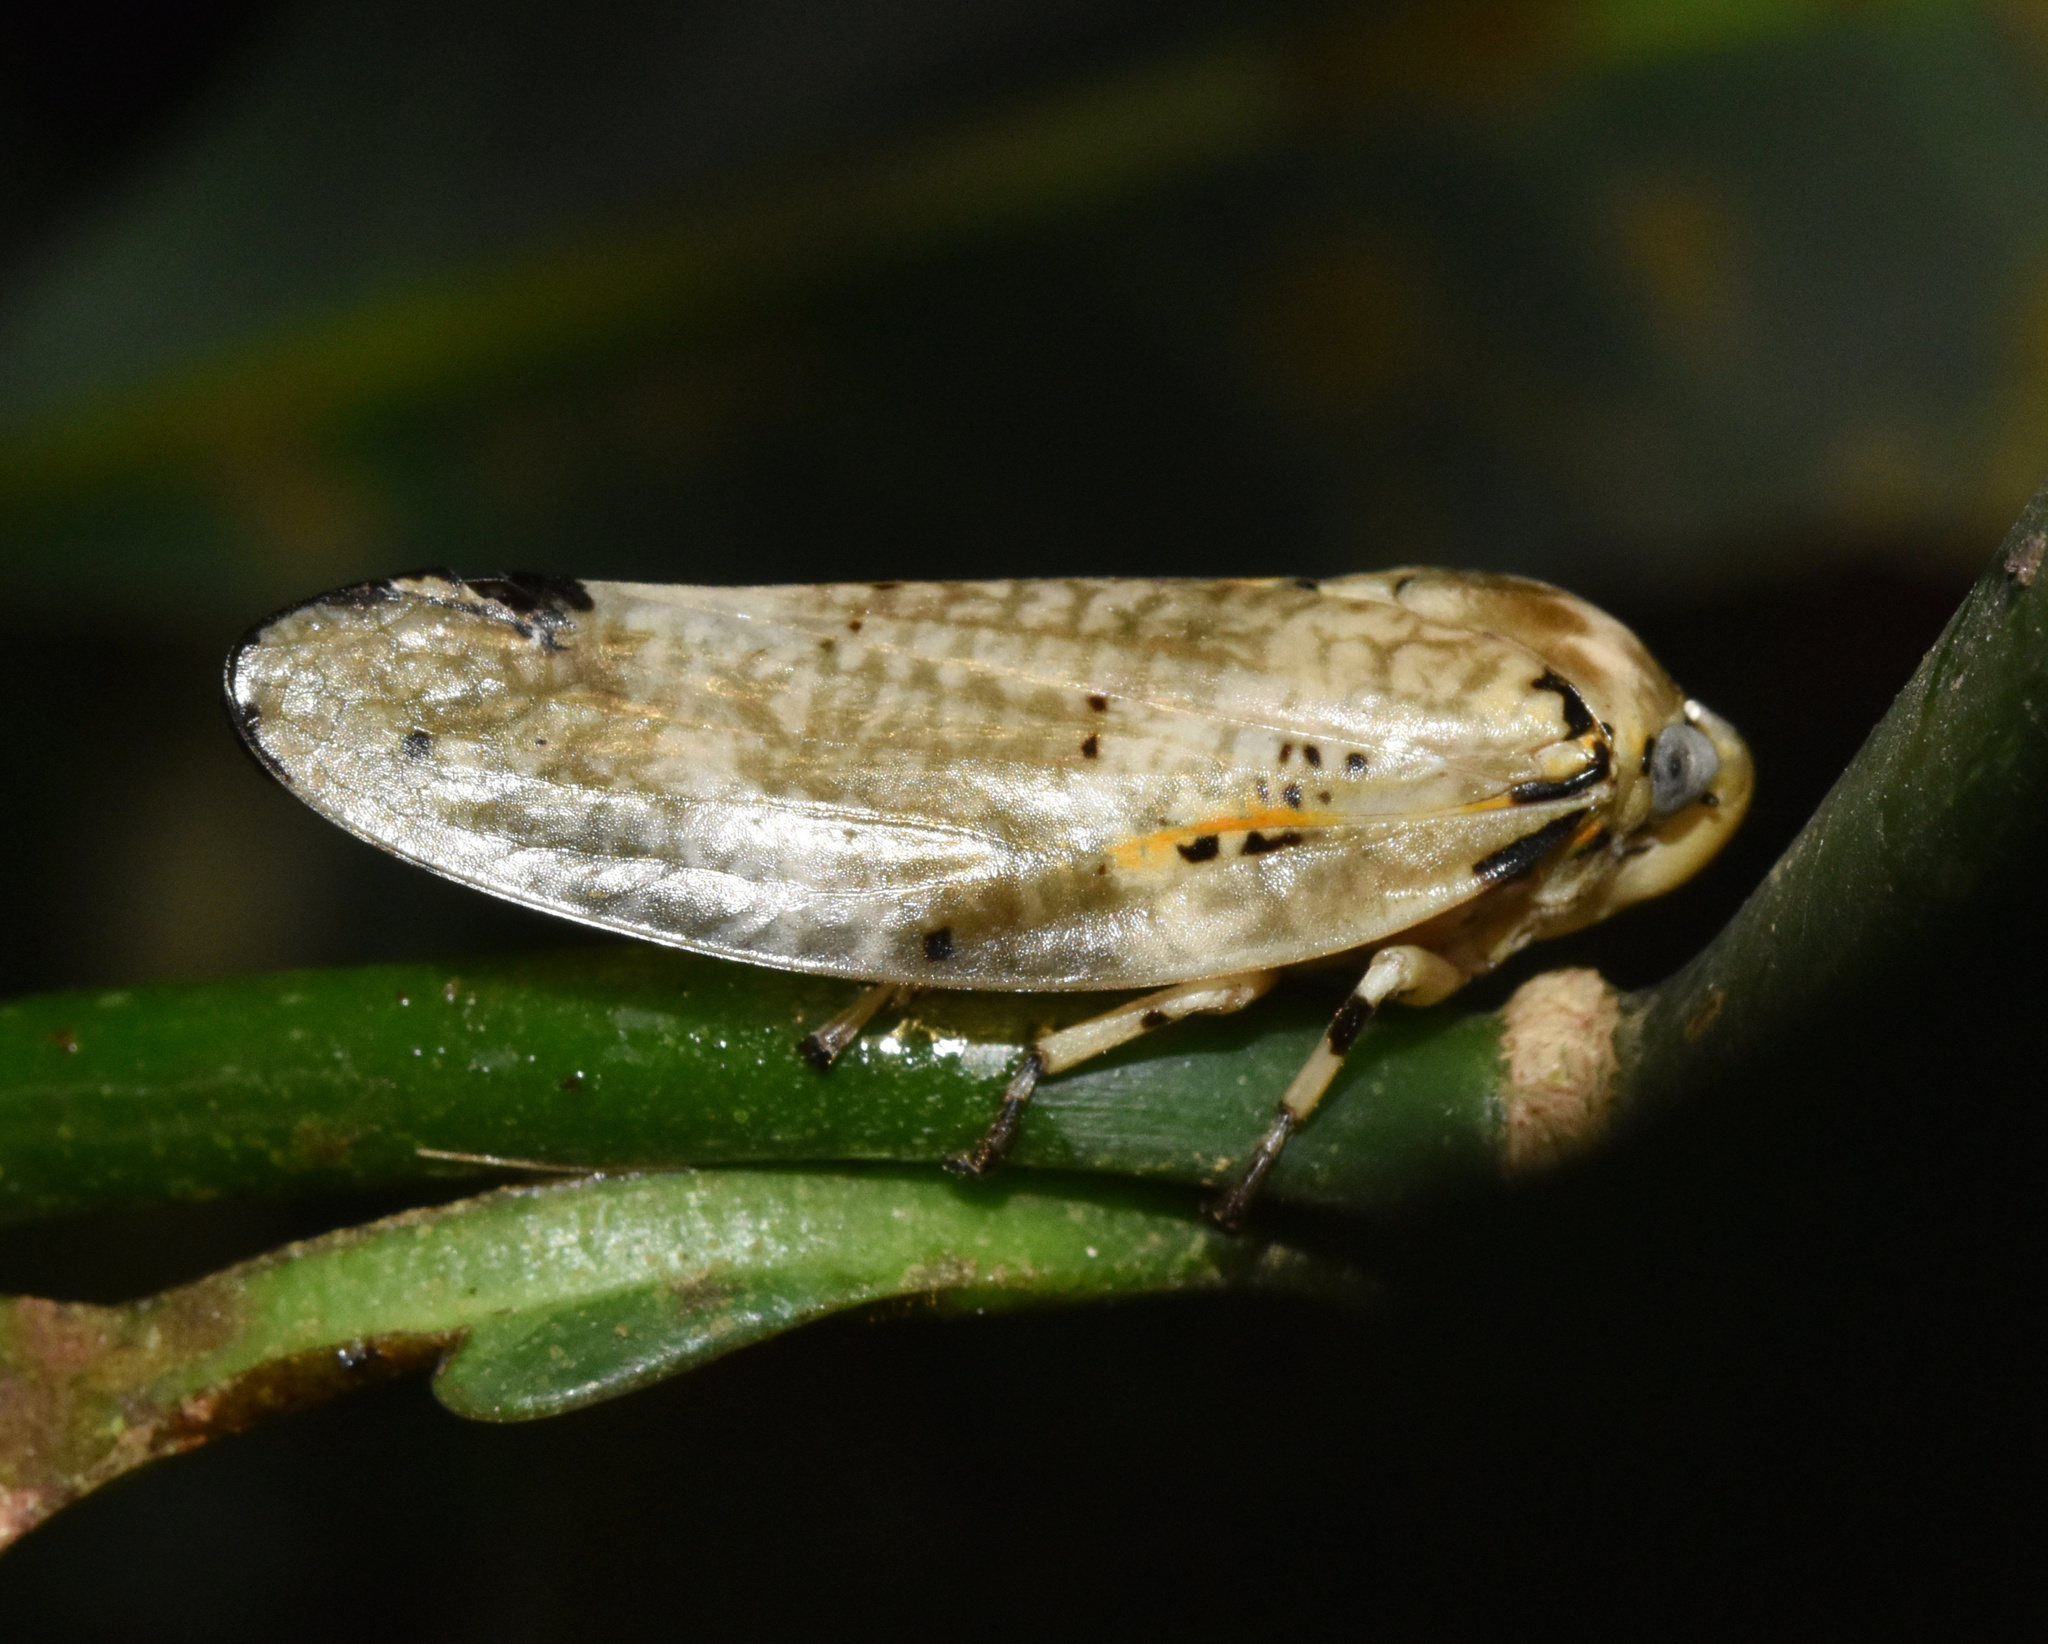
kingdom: Animalia
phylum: Arthropoda
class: Insecta
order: Hemiptera
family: Aphrophoridae
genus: Ptyelus
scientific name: Ptyelus grossus
